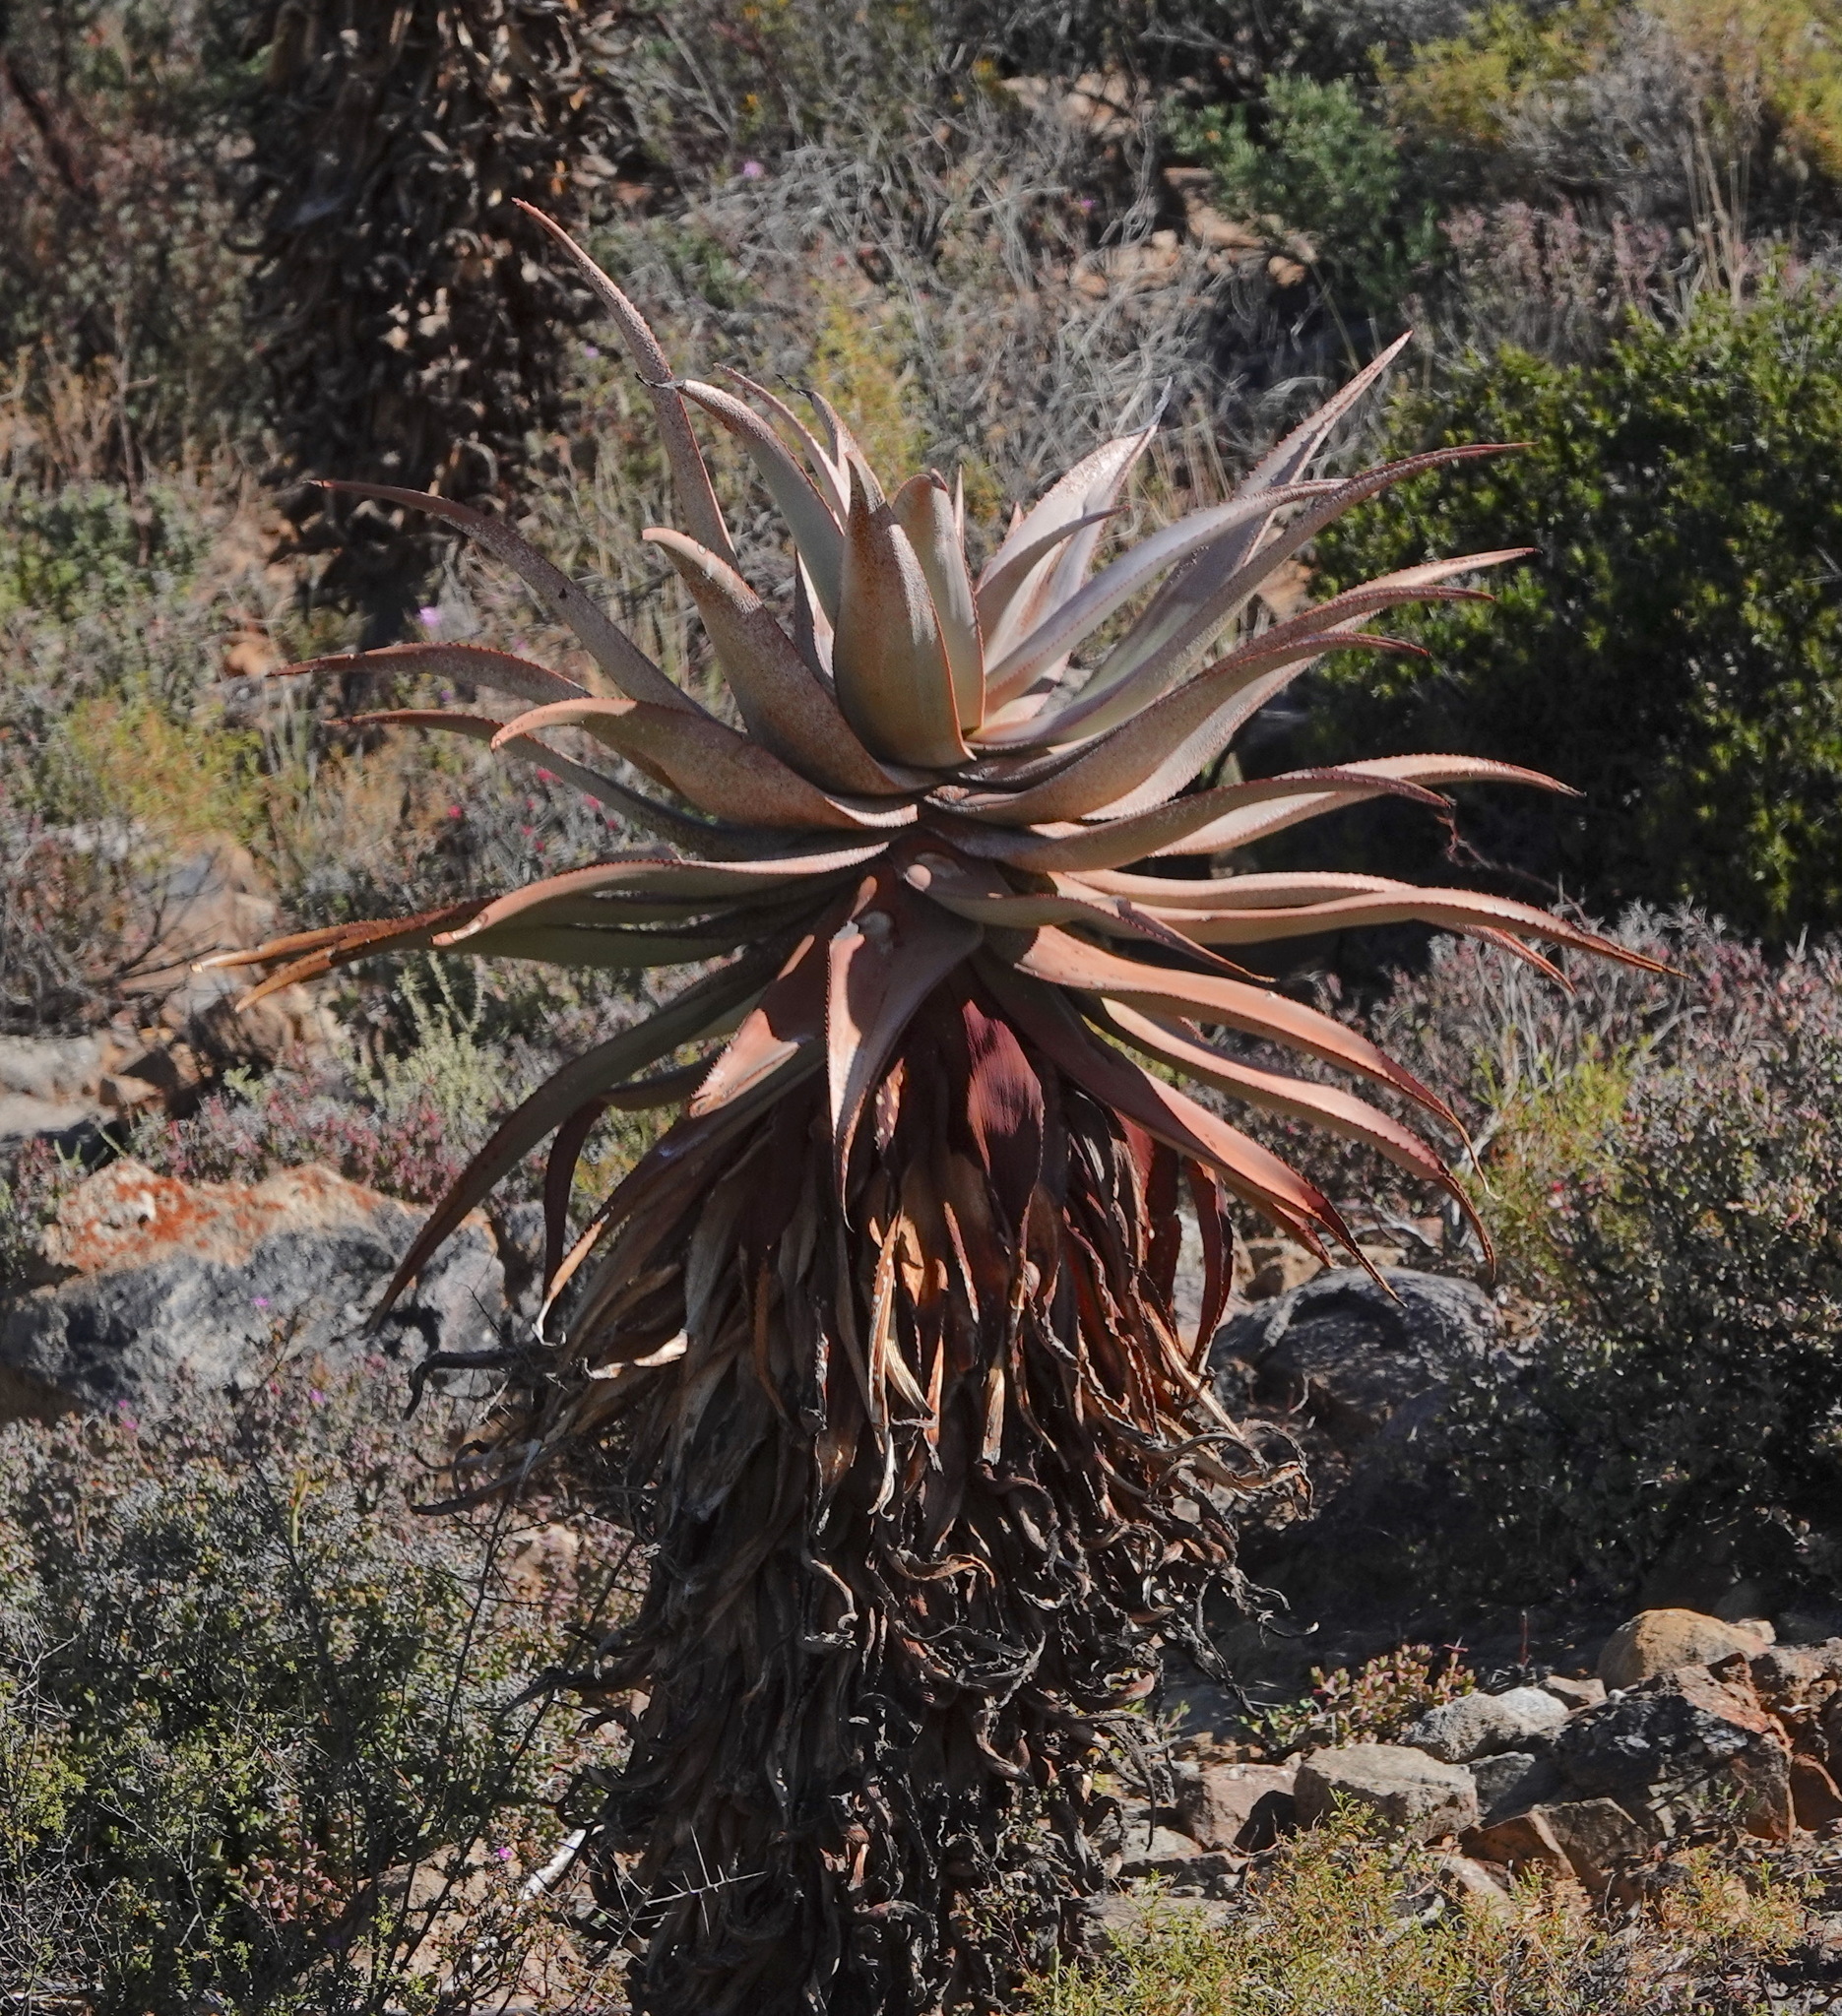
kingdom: Plantae
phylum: Tracheophyta
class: Liliopsida
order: Asparagales
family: Asphodelaceae
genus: Aloe
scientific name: Aloe comosa
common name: Clanwilliam aloe
